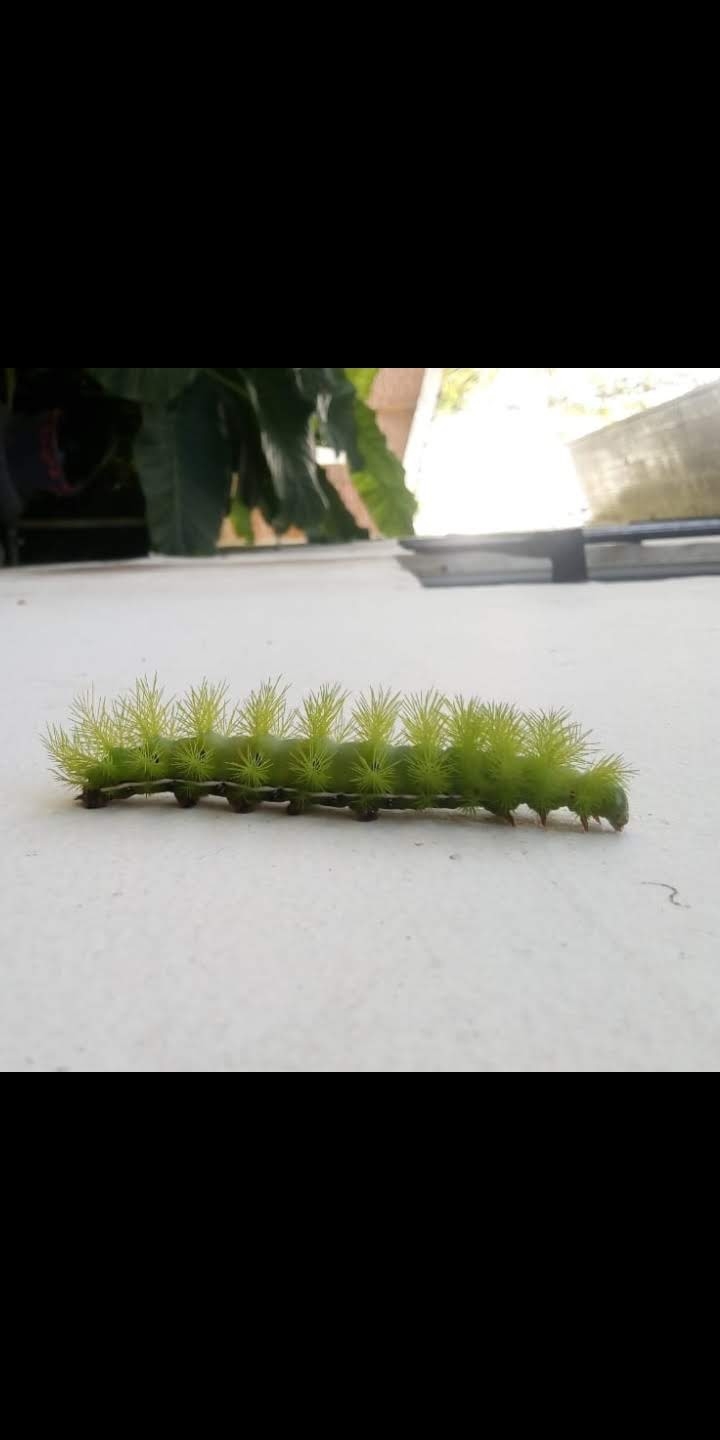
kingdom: Animalia
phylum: Arthropoda
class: Insecta
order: Lepidoptera
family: Saturniidae
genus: Automeris
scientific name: Automeris coresus
